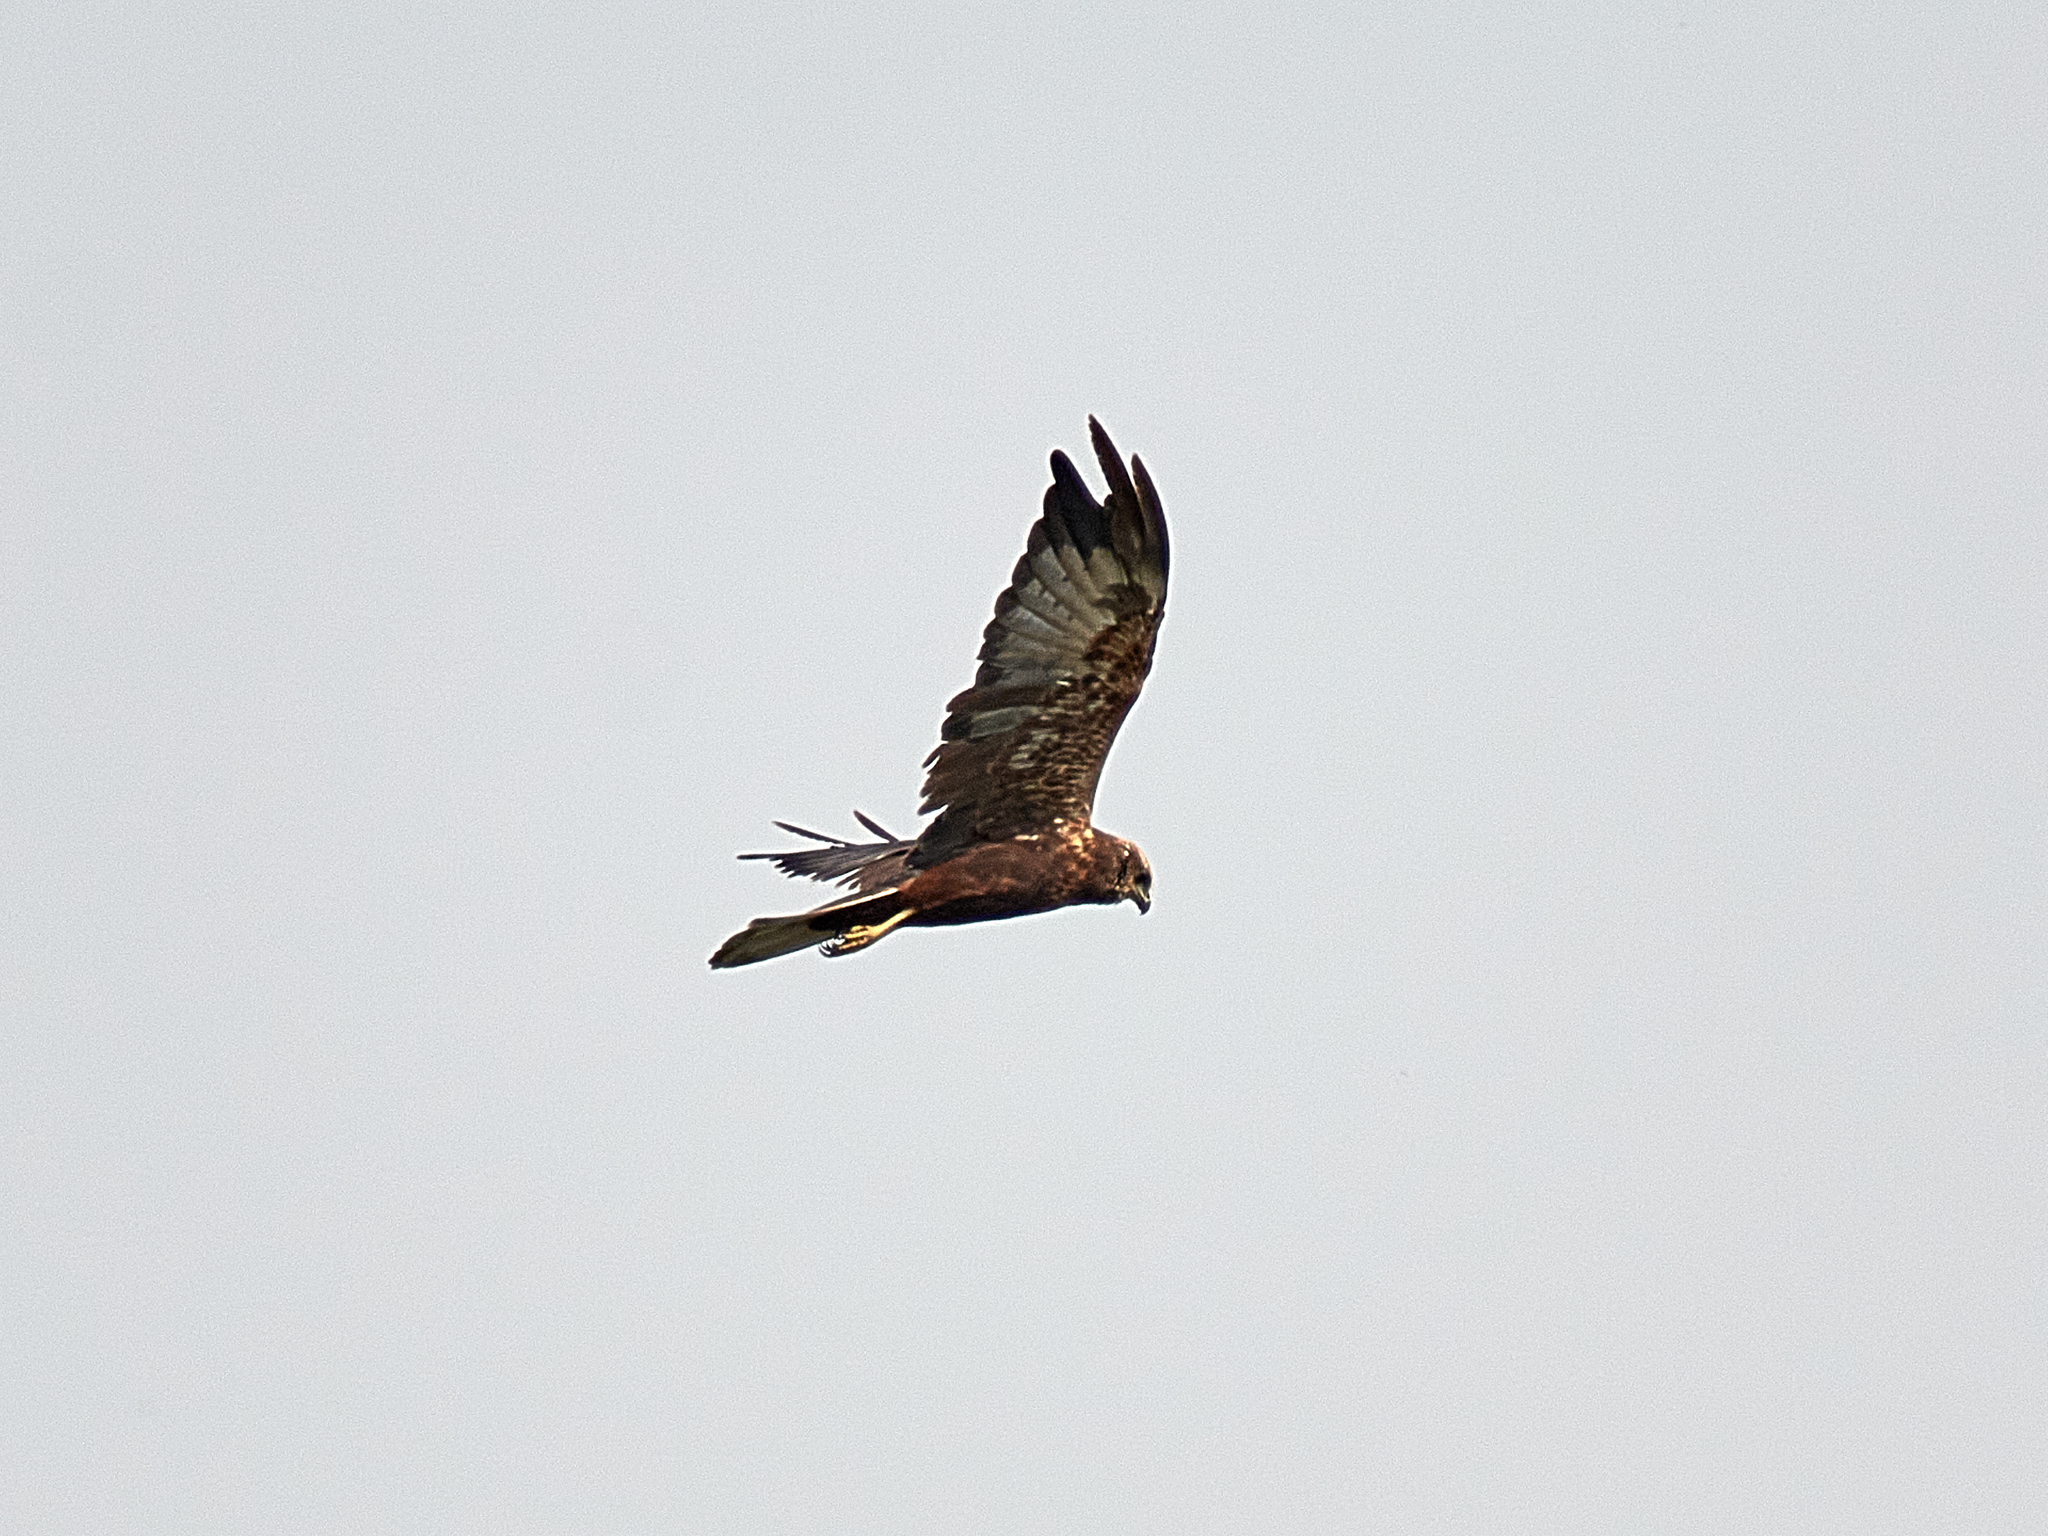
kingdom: Animalia
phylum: Chordata
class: Aves
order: Accipitriformes
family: Accipitridae
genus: Circus
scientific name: Circus aeruginosus
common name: Western marsh harrier
